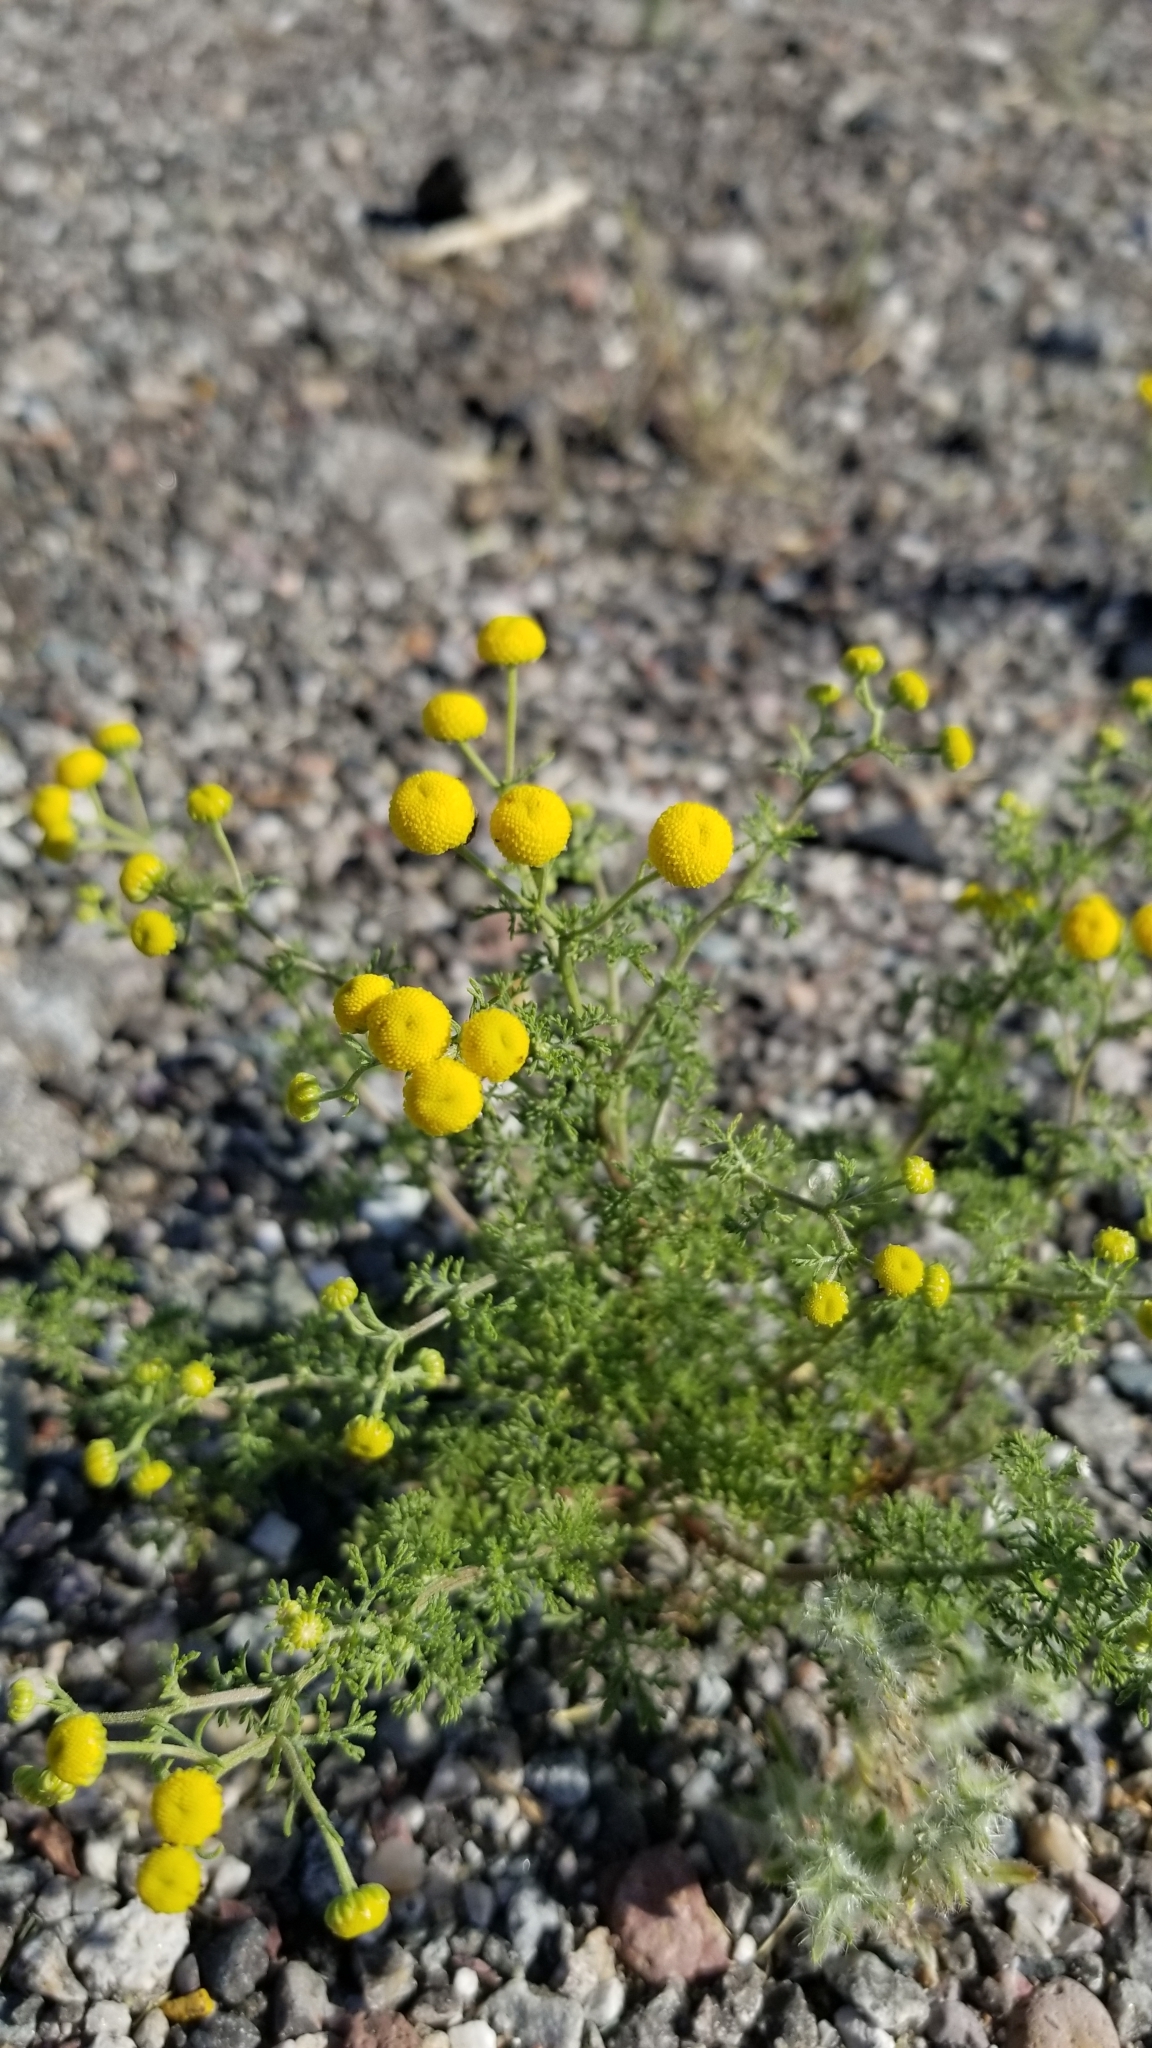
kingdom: Plantae
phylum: Tracheophyta
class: Magnoliopsida
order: Asterales
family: Asteraceae
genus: Oncosiphon
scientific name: Oncosiphon pilulifer
